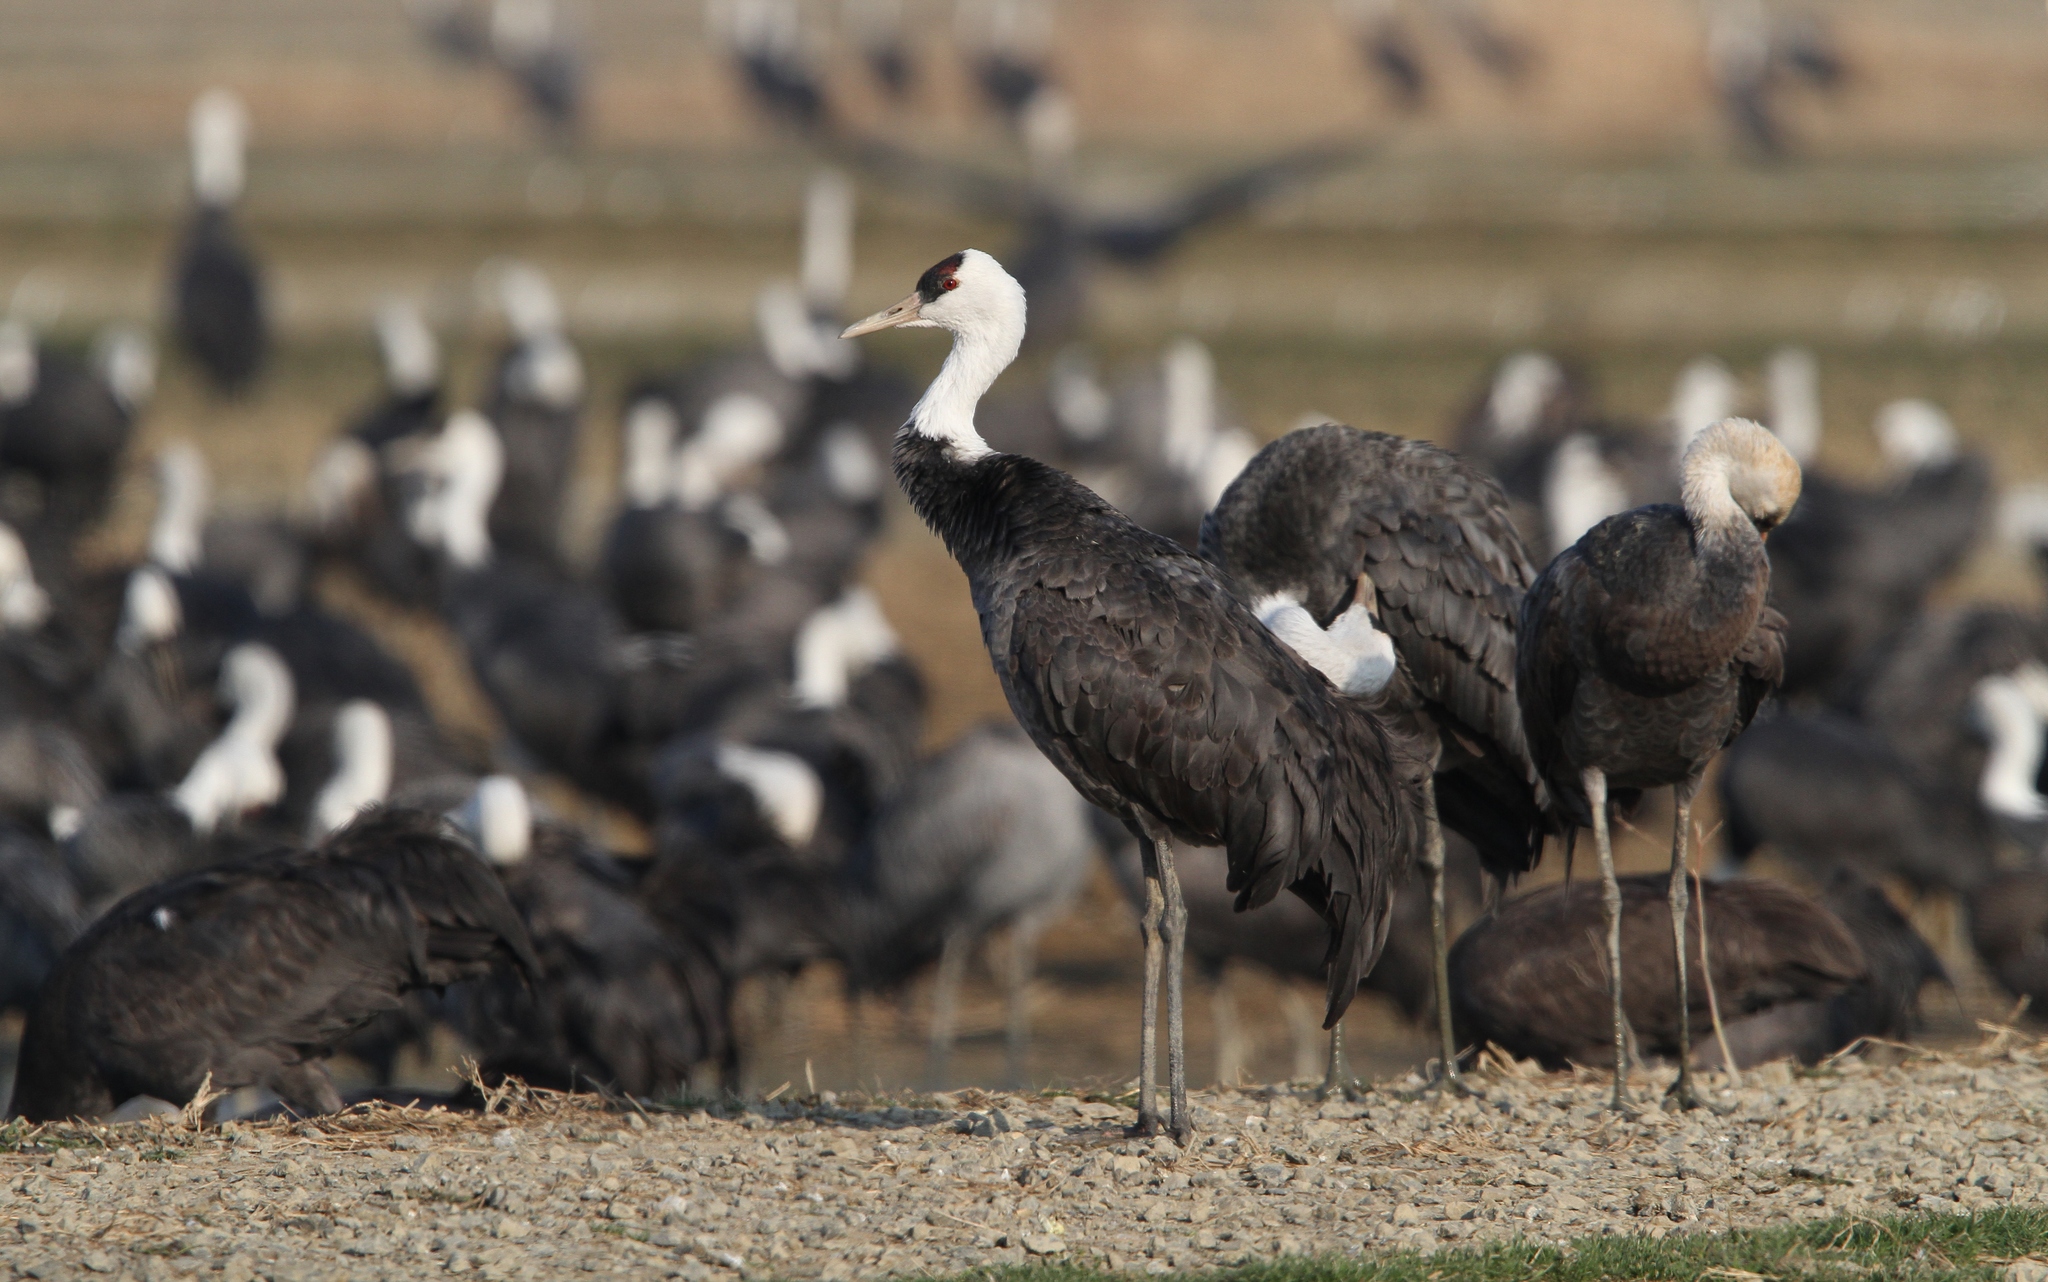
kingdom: Animalia
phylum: Chordata
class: Aves
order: Gruiformes
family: Gruidae
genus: Grus
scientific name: Grus monacha
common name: Hooded crane
